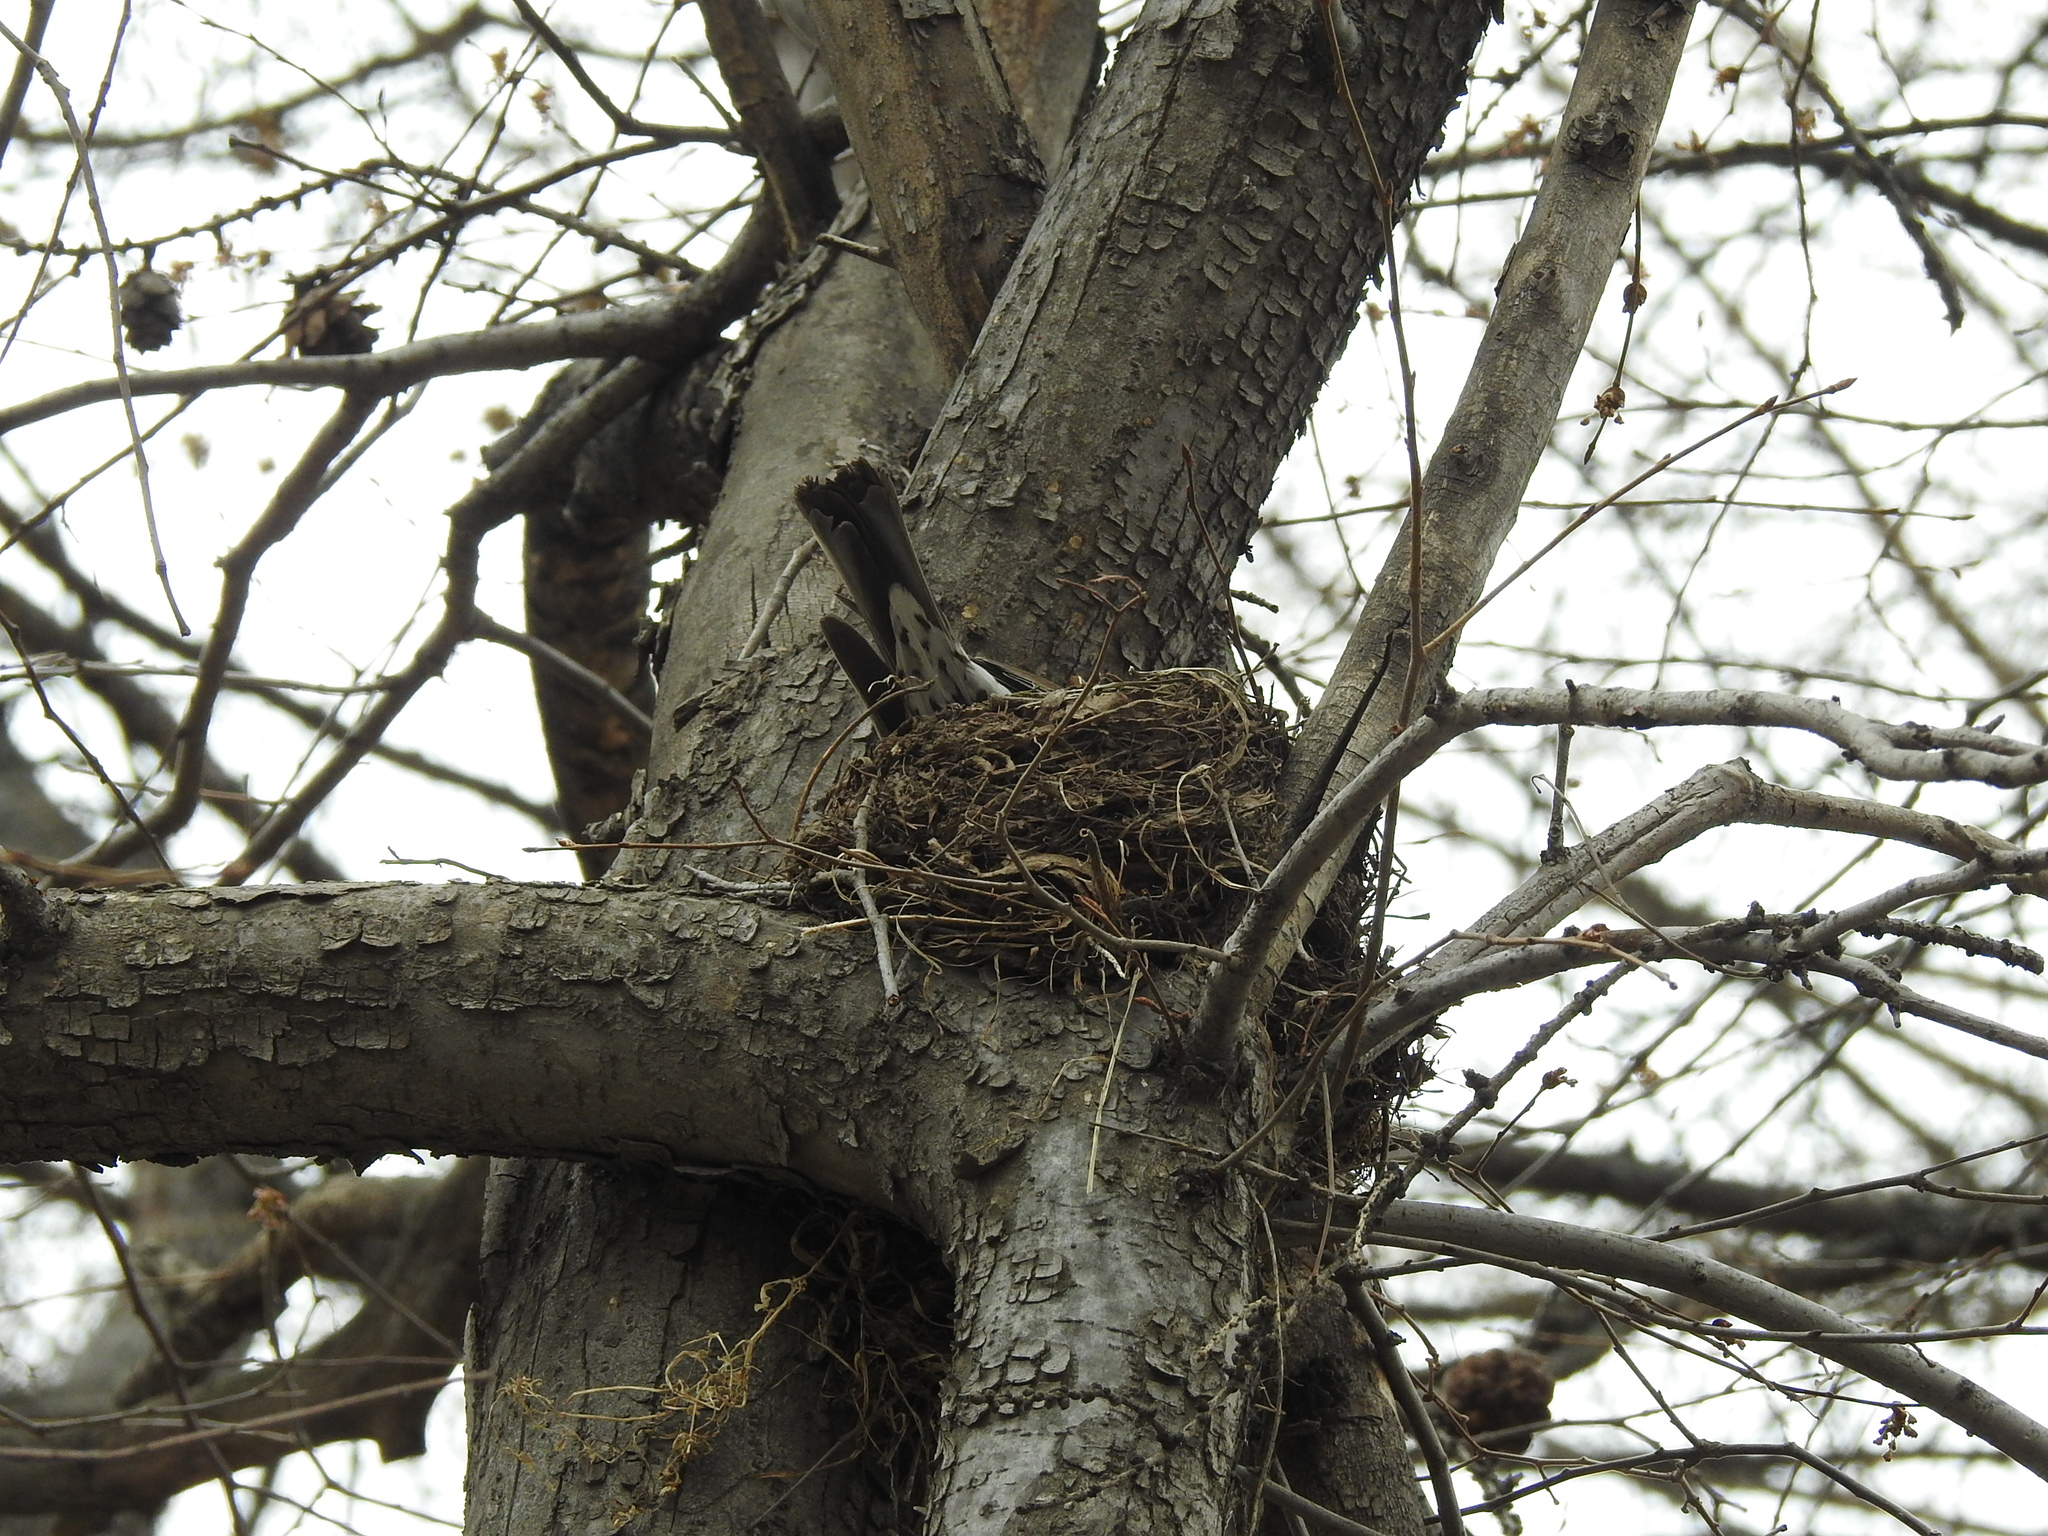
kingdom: Animalia
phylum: Chordata
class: Aves
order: Passeriformes
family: Turdidae
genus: Turdus
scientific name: Turdus pilaris
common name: Fieldfare
